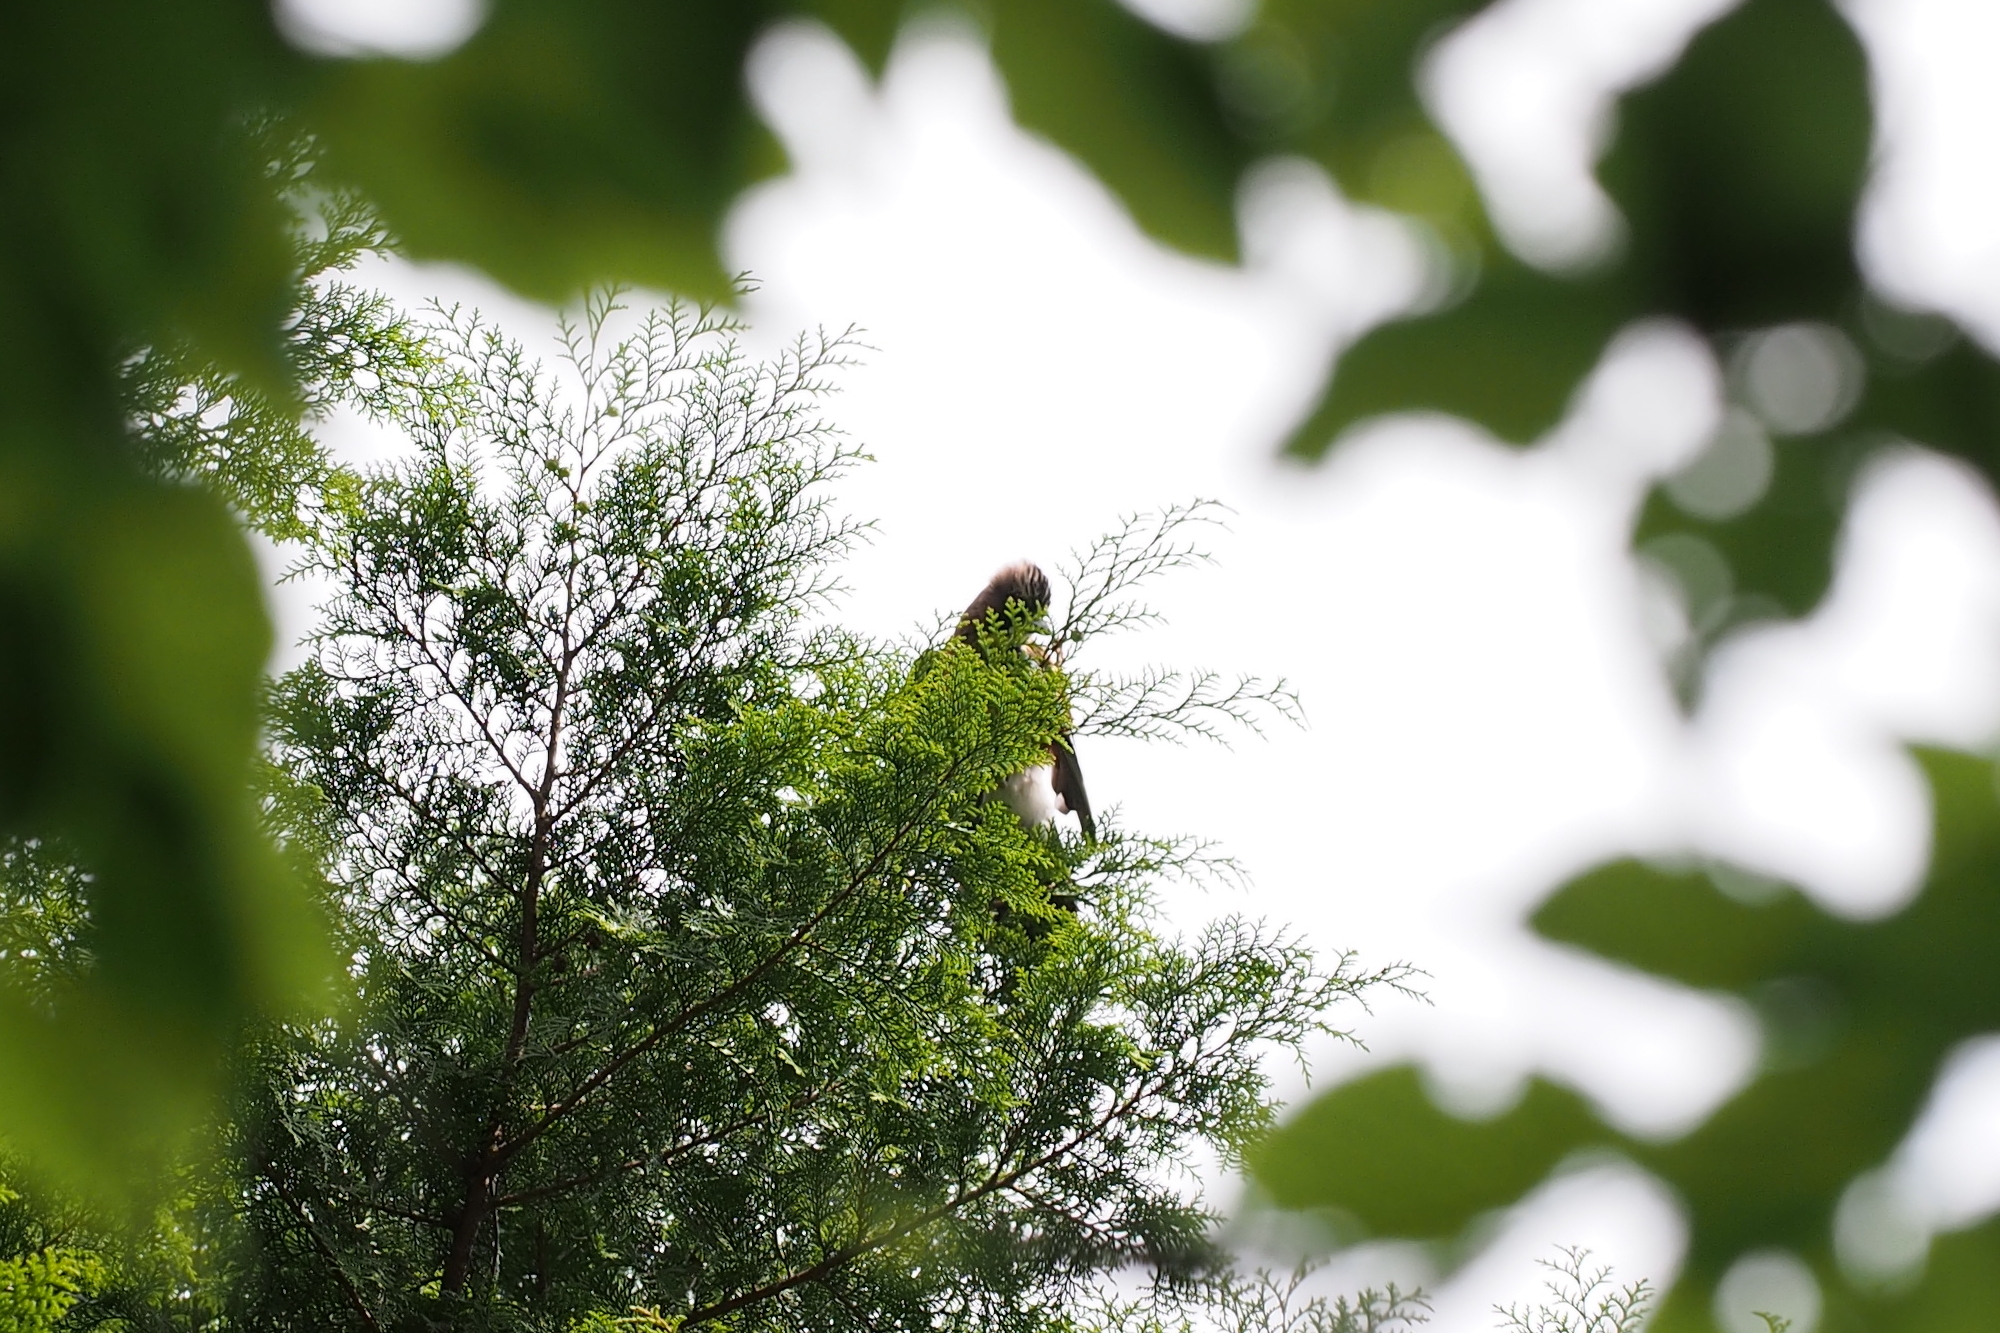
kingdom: Animalia
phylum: Chordata
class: Aves
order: Passeriformes
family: Corvidae
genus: Garrulus
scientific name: Garrulus glandarius
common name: Eurasian jay
